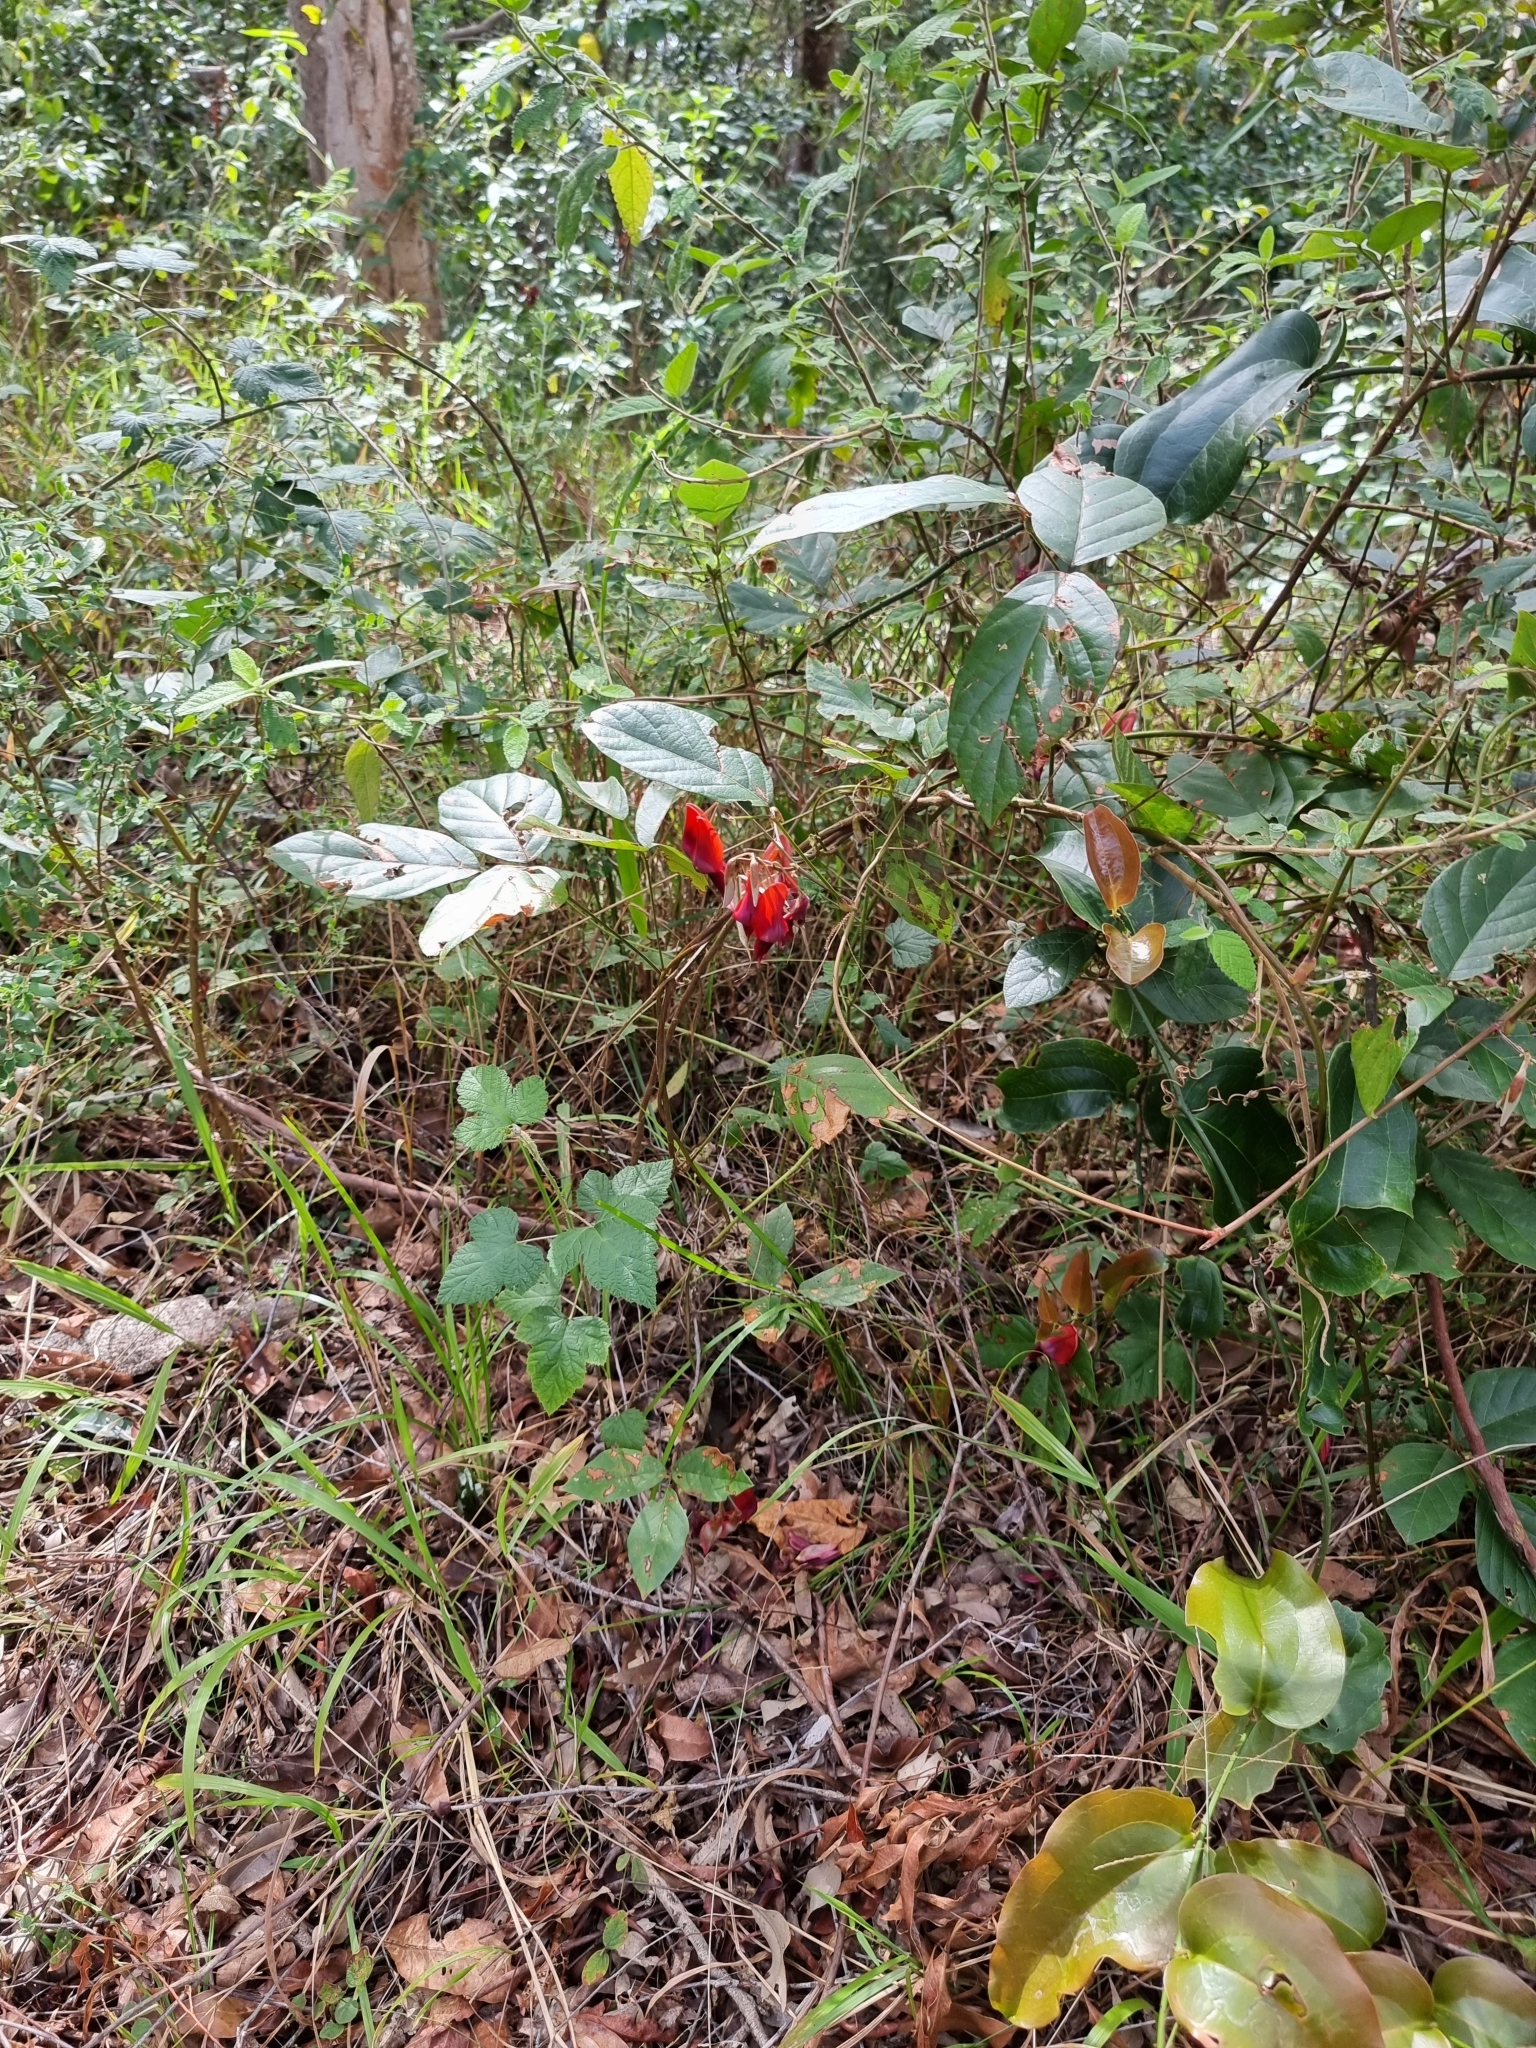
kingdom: Plantae
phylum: Tracheophyta
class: Magnoliopsida
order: Fabales
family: Fabaceae
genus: Kennedia
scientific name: Kennedia rubicunda
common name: Red kennedy-pea
